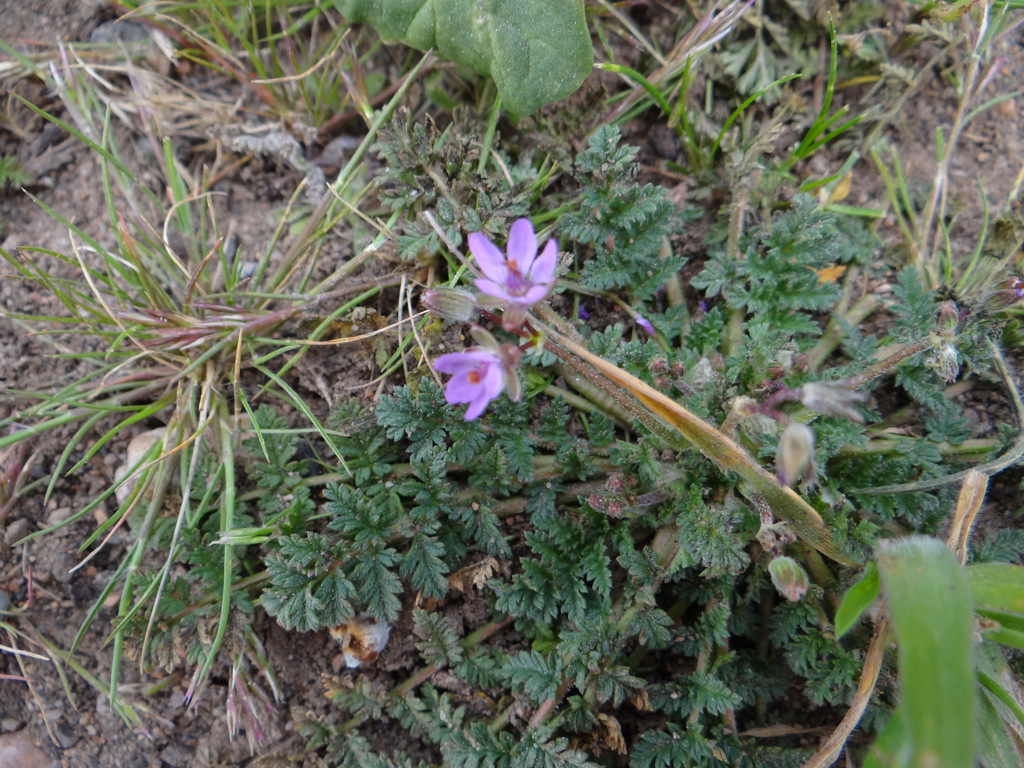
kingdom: Plantae
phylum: Tracheophyta
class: Magnoliopsida
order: Geraniales
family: Geraniaceae
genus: Erodium
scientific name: Erodium cicutarium
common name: Common stork's-bill
